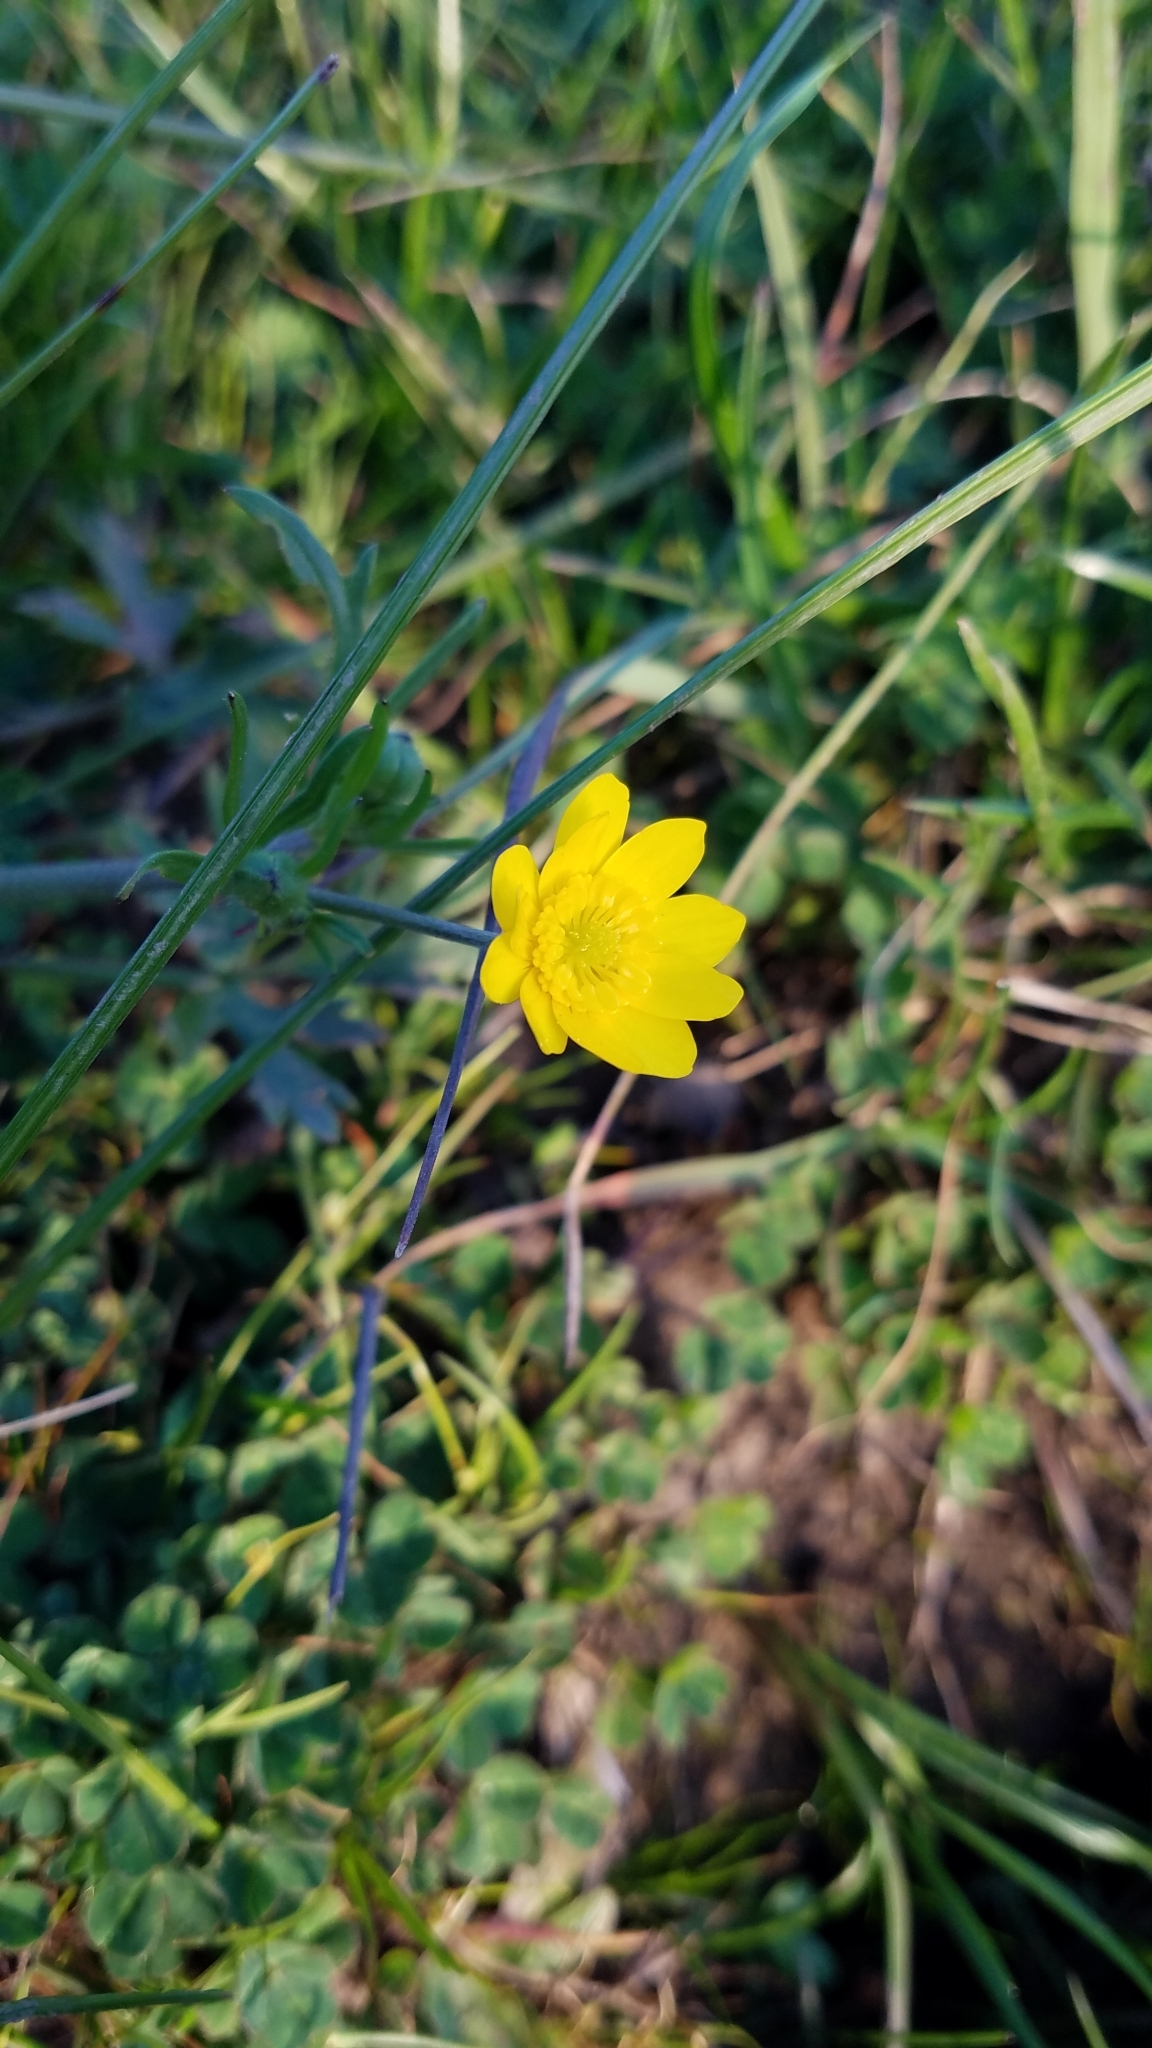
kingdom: Plantae
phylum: Tracheophyta
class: Magnoliopsida
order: Ranunculales
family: Ranunculaceae
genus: Ranunculus
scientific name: Ranunculus californicus
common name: California buttercup
